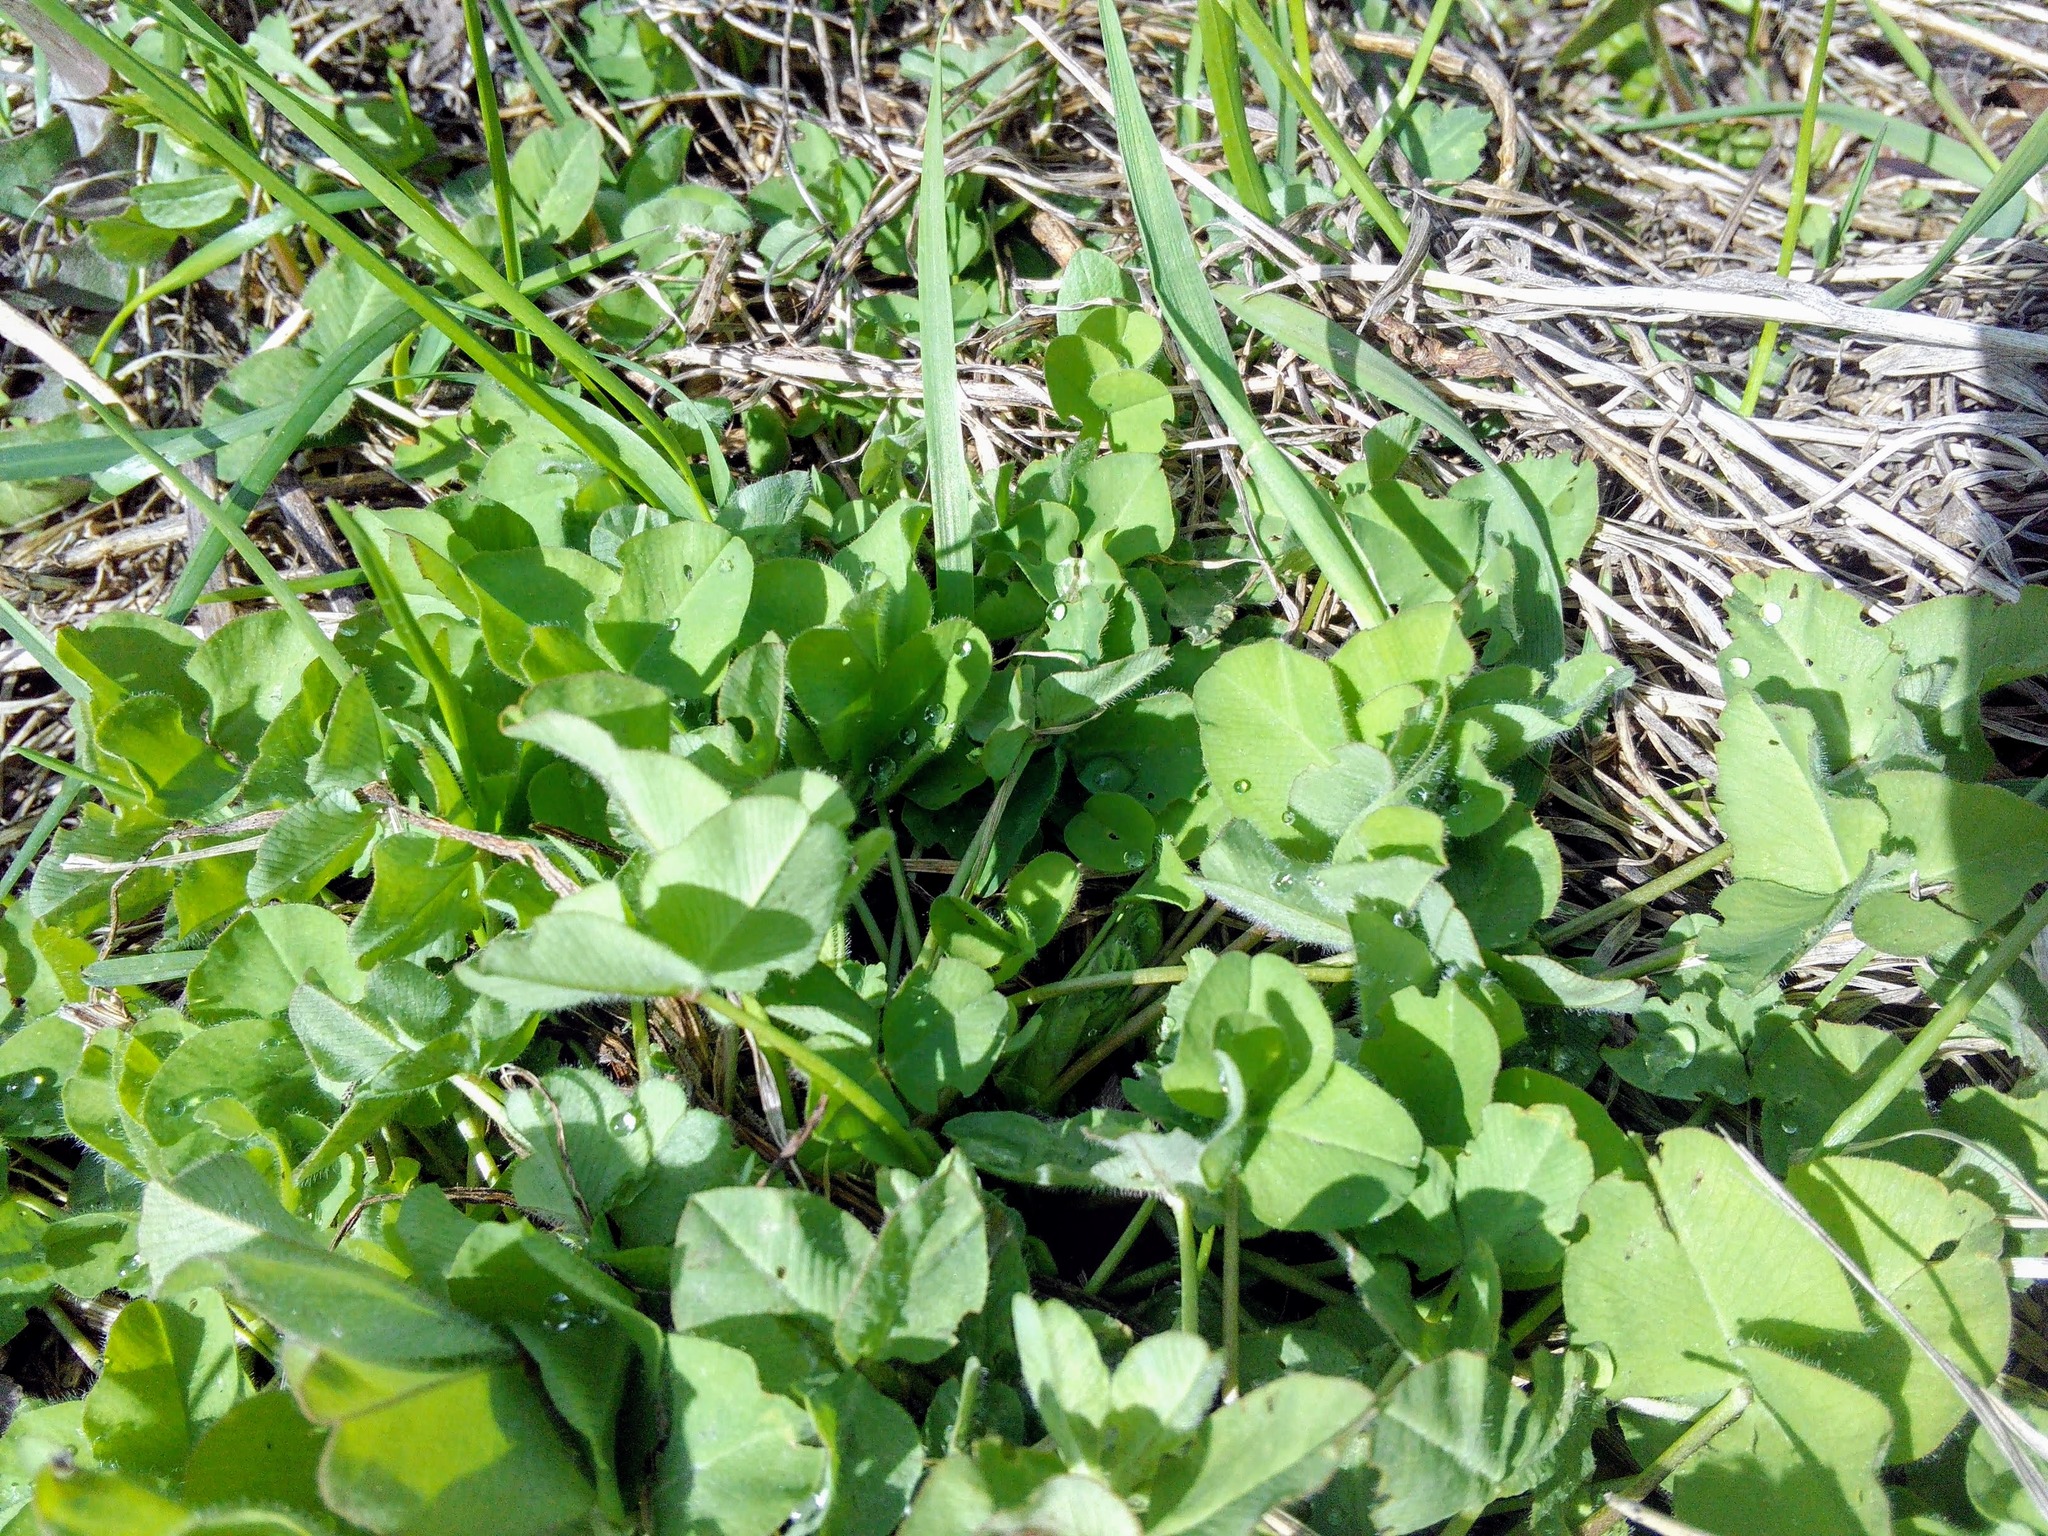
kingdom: Plantae
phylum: Tracheophyta
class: Magnoliopsida
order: Fabales
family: Fabaceae
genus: Trifolium
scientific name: Trifolium pratense
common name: Red clover
